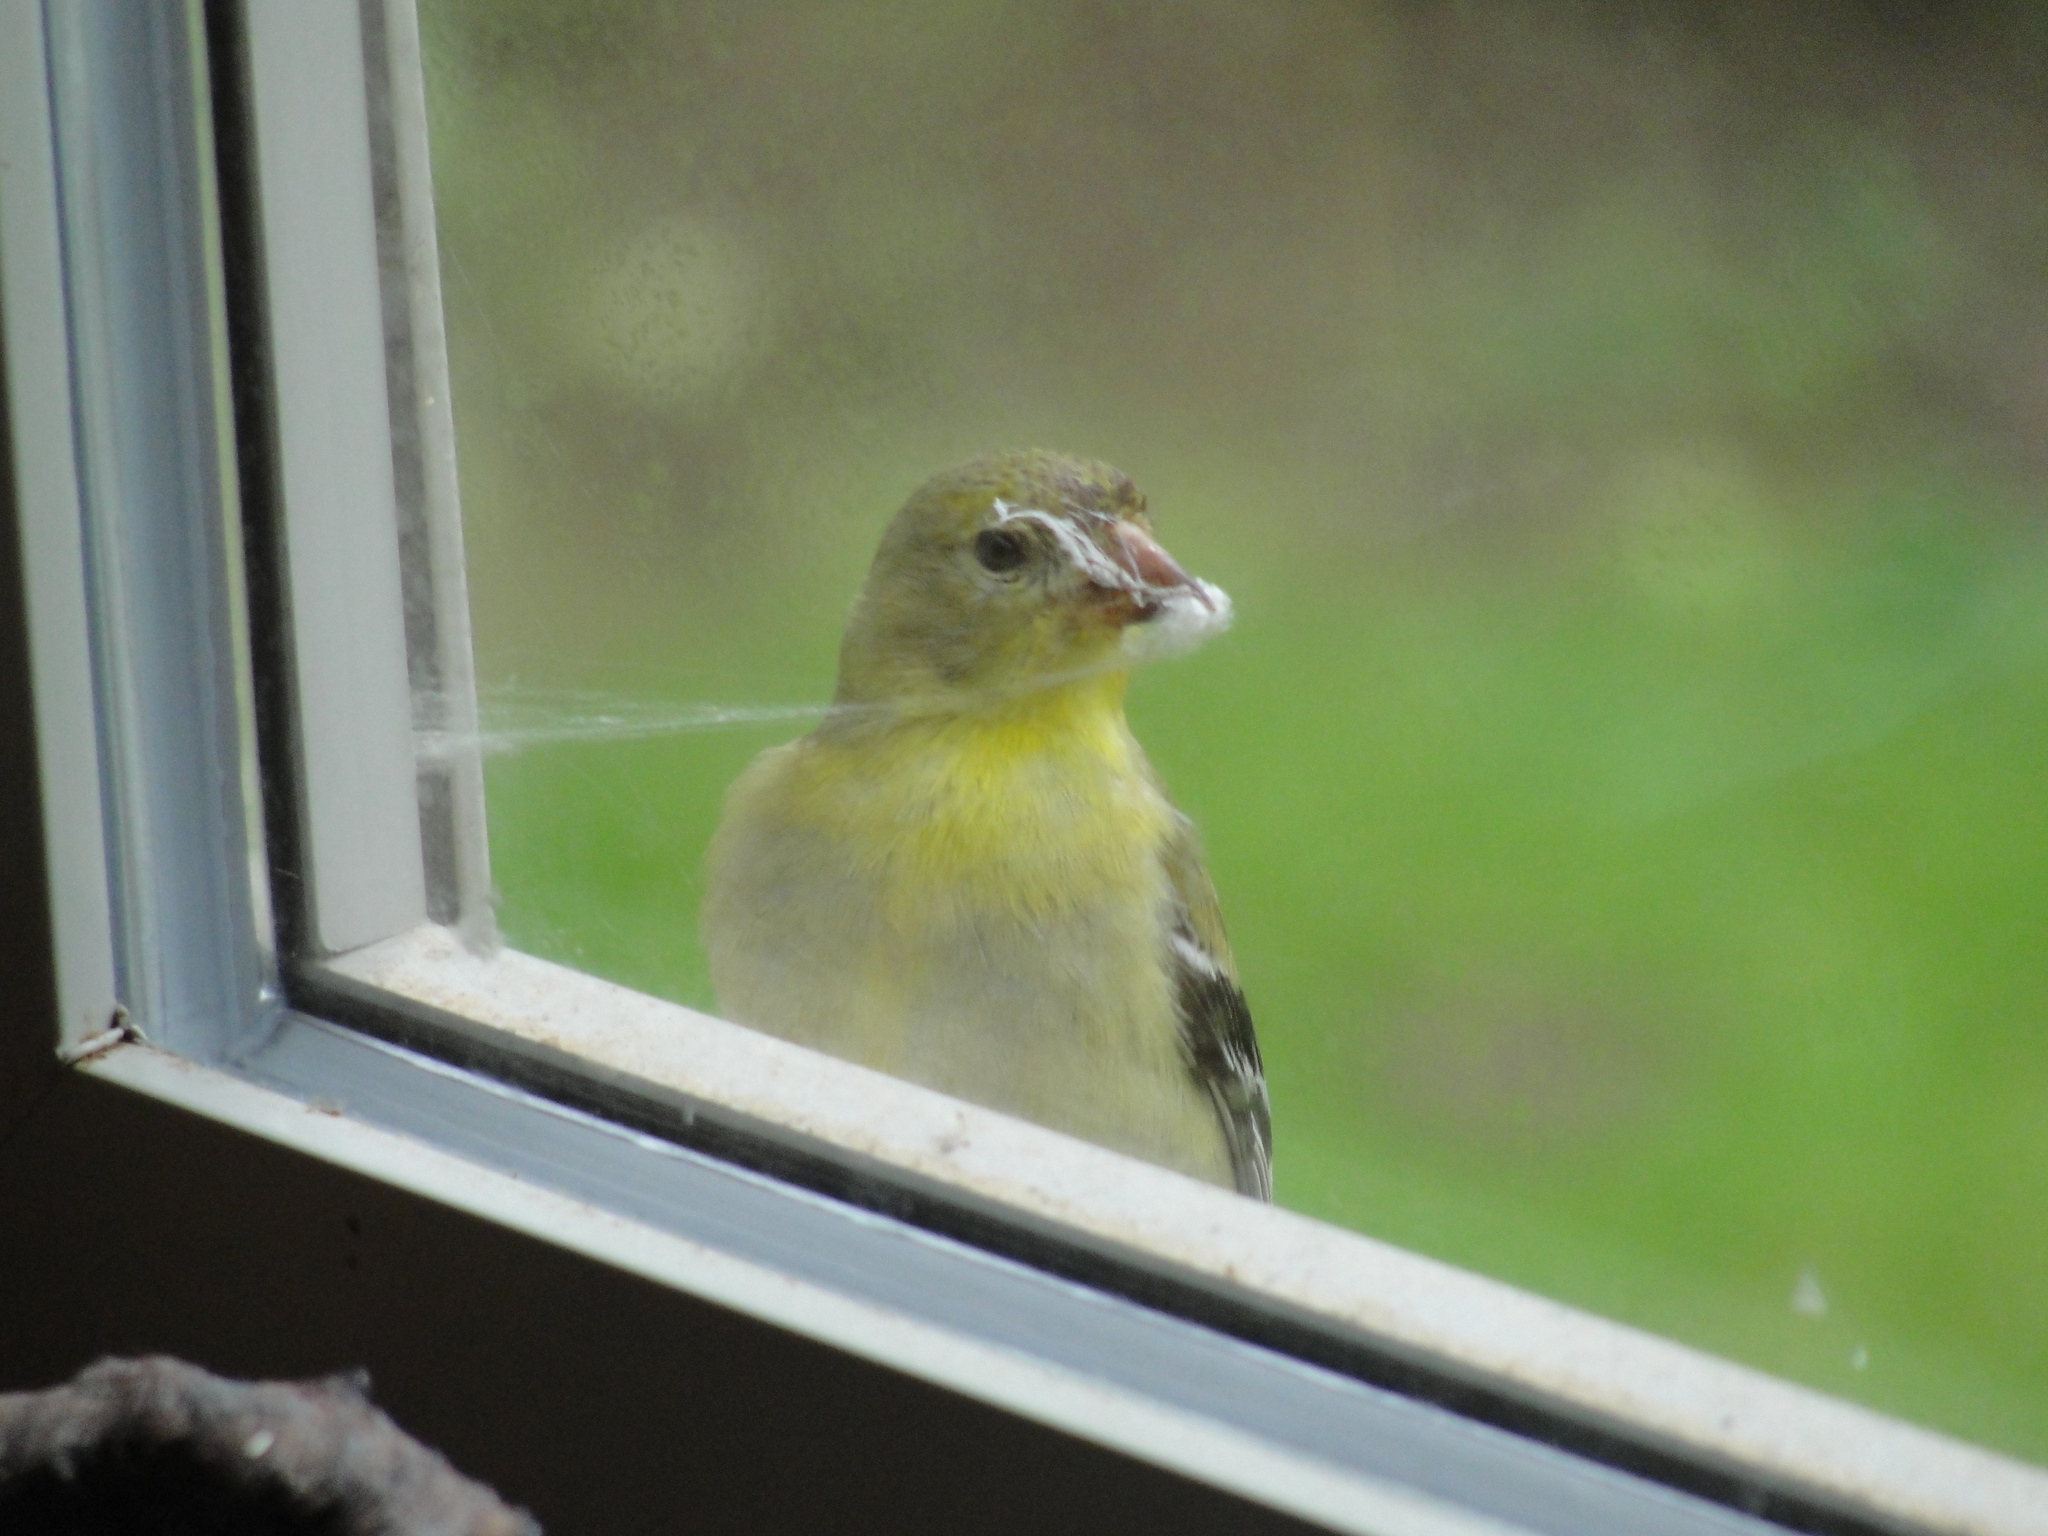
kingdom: Animalia
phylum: Chordata
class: Aves
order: Passeriformes
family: Fringillidae
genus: Spinus
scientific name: Spinus tristis
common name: American goldfinch
